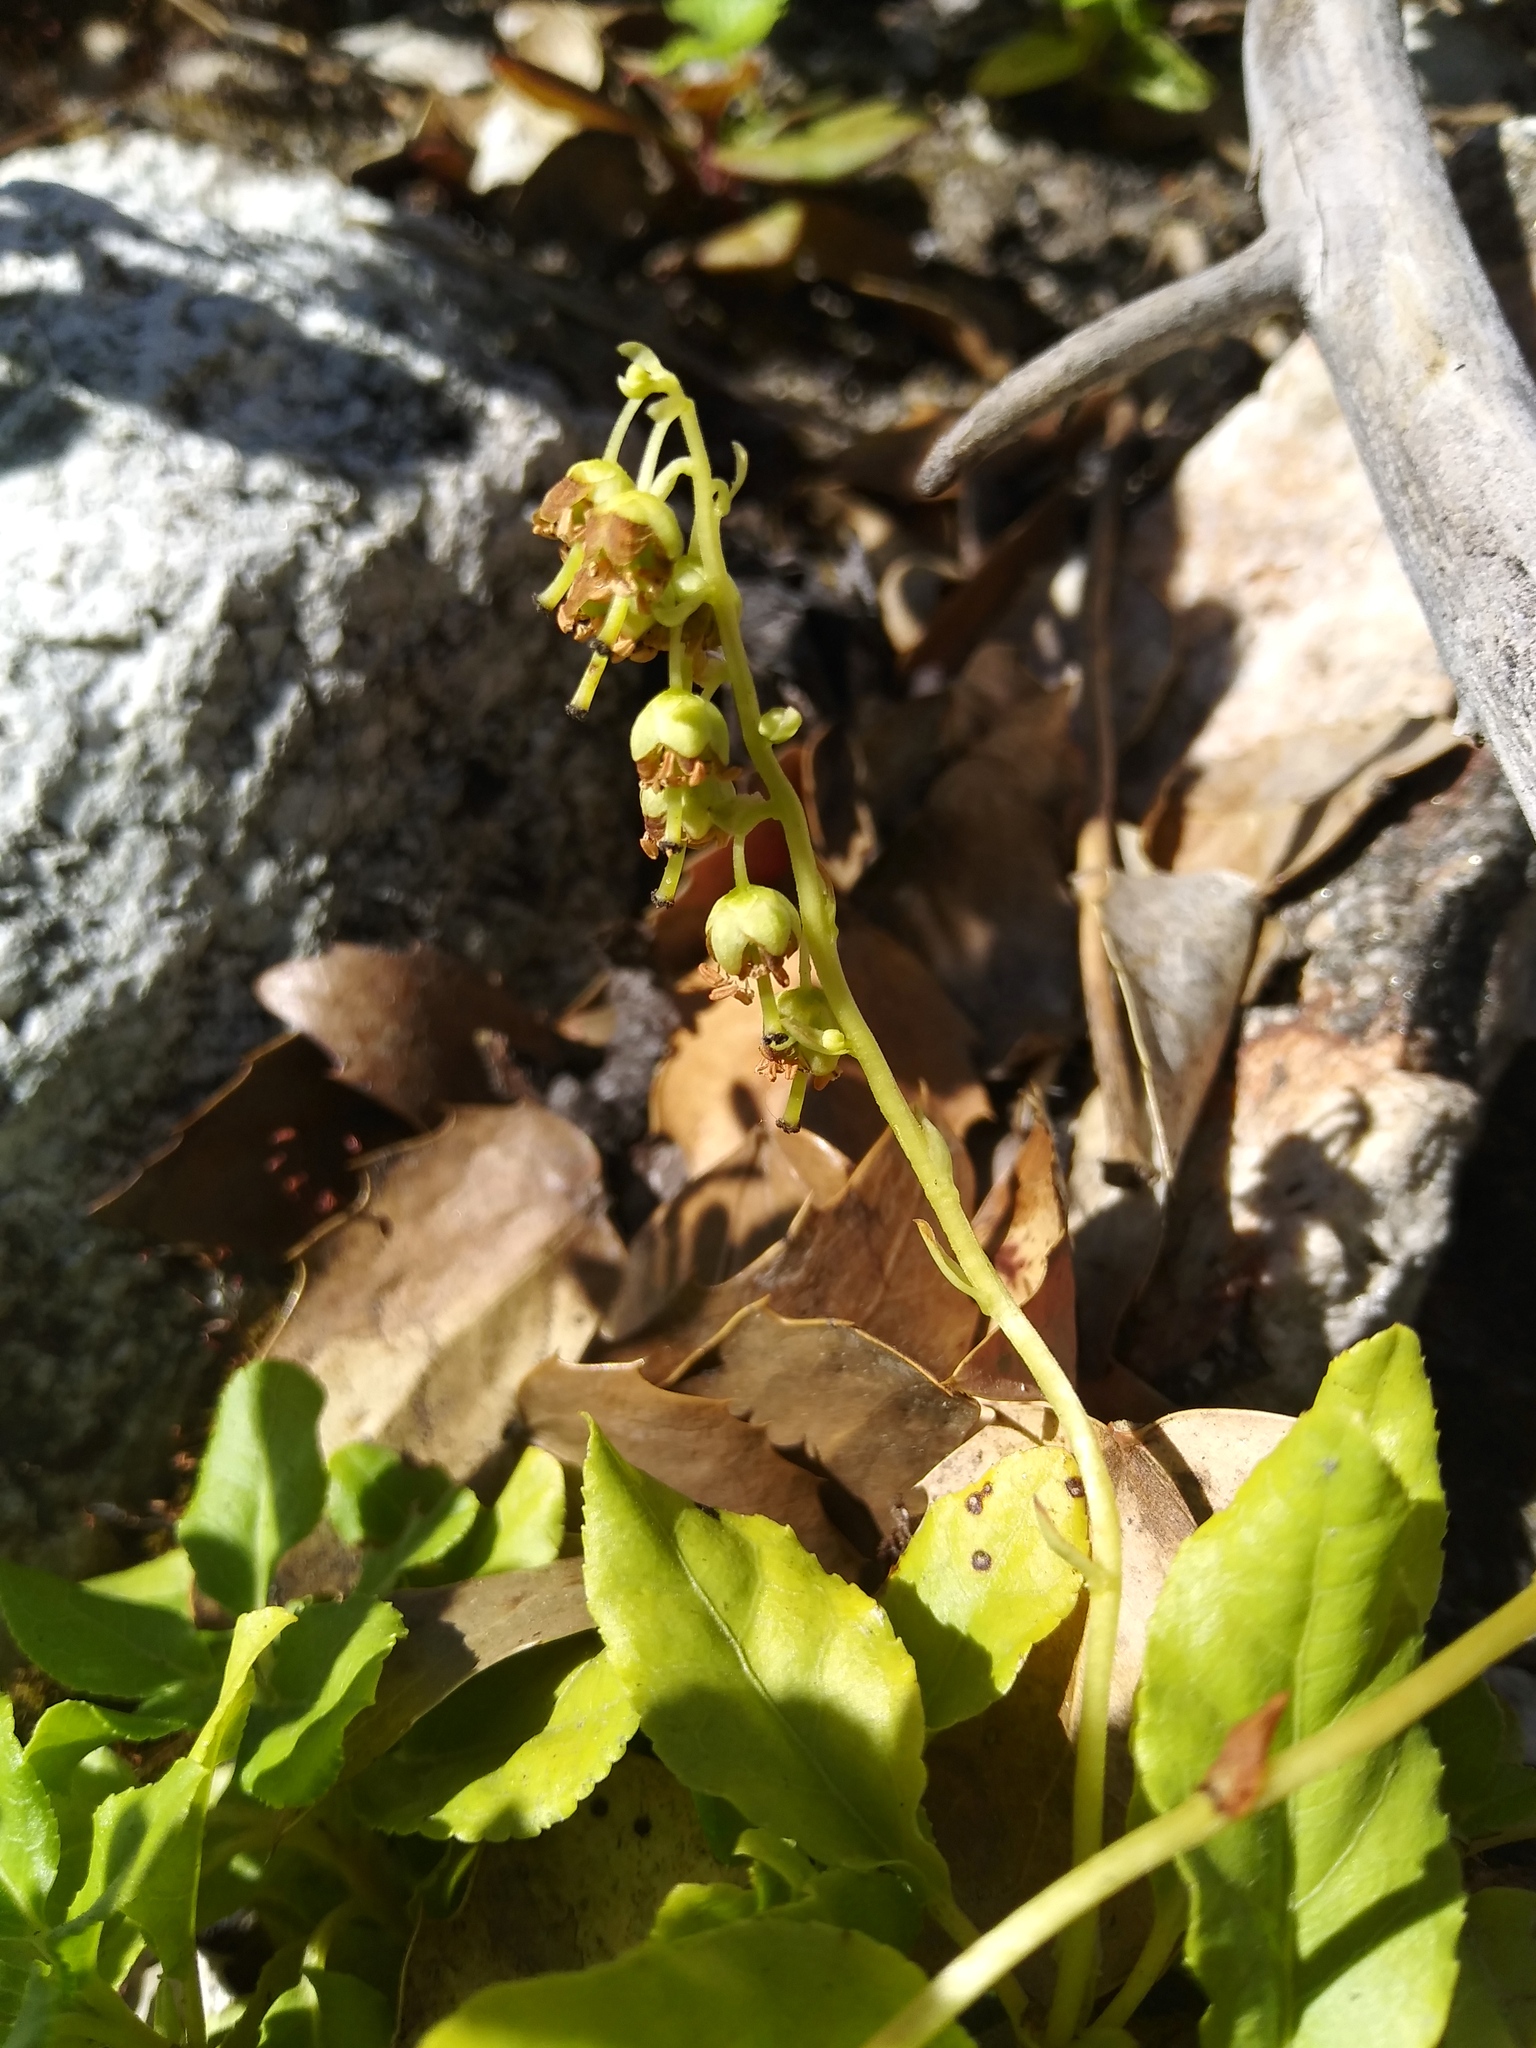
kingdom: Plantae
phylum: Tracheophyta
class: Magnoliopsida
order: Ericales
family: Ericaceae
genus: Orthilia
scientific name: Orthilia secunda
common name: One-sided orthilia
